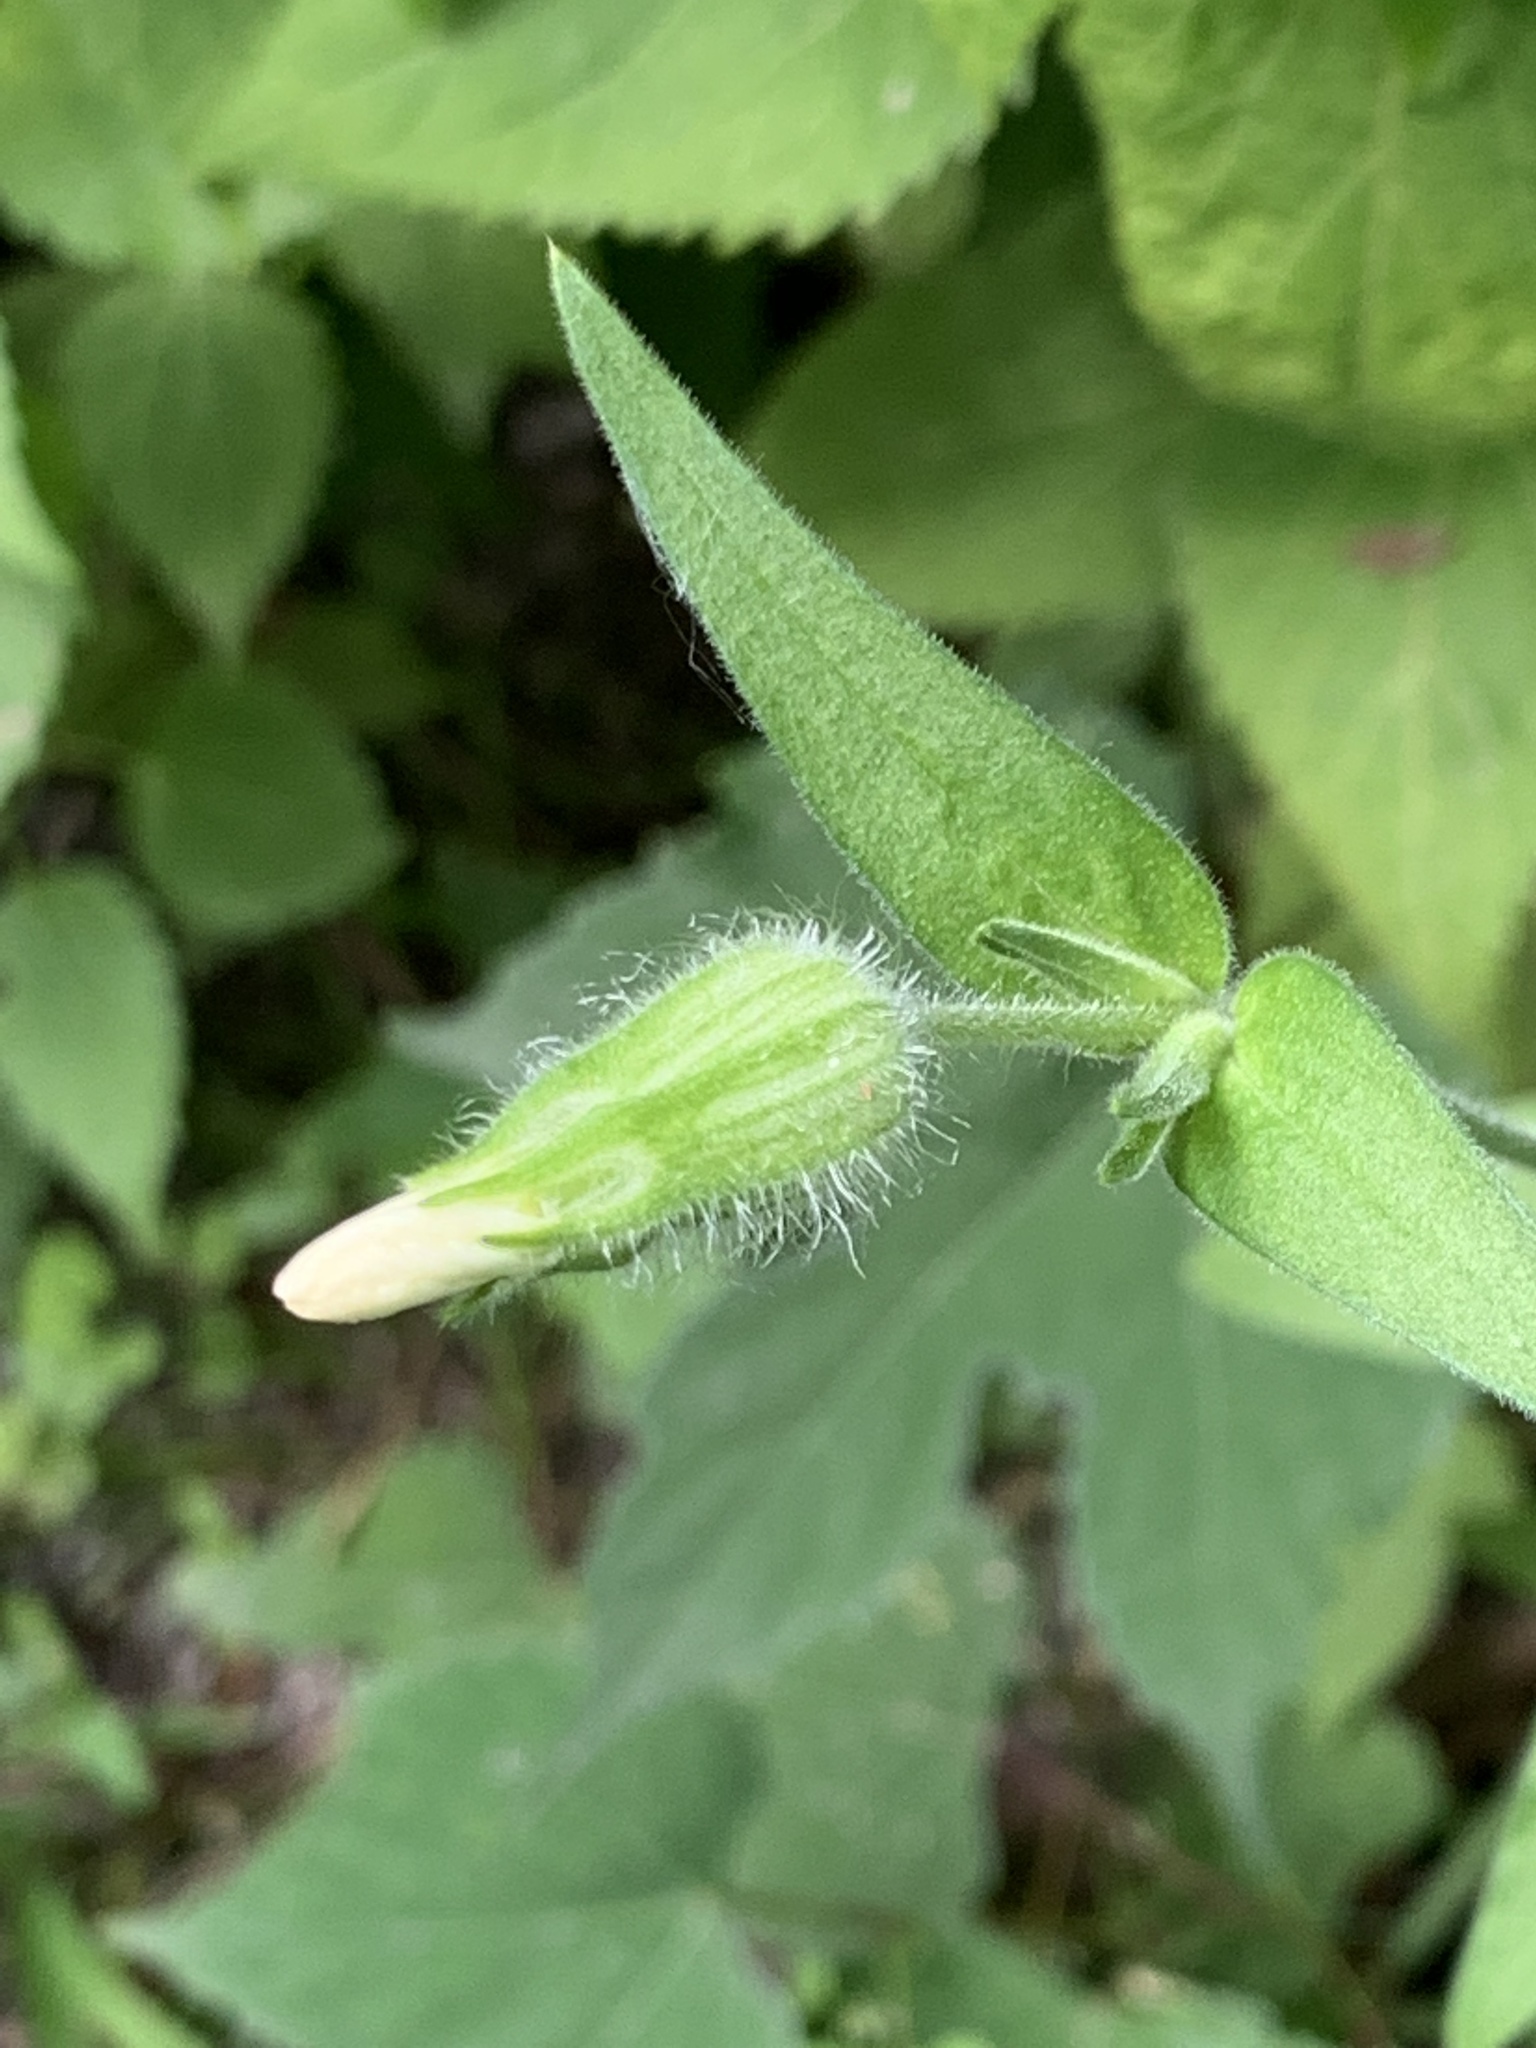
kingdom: Plantae
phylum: Tracheophyta
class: Magnoliopsida
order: Caryophyllales
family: Caryophyllaceae
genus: Silene
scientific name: Silene latifolia
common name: White campion
